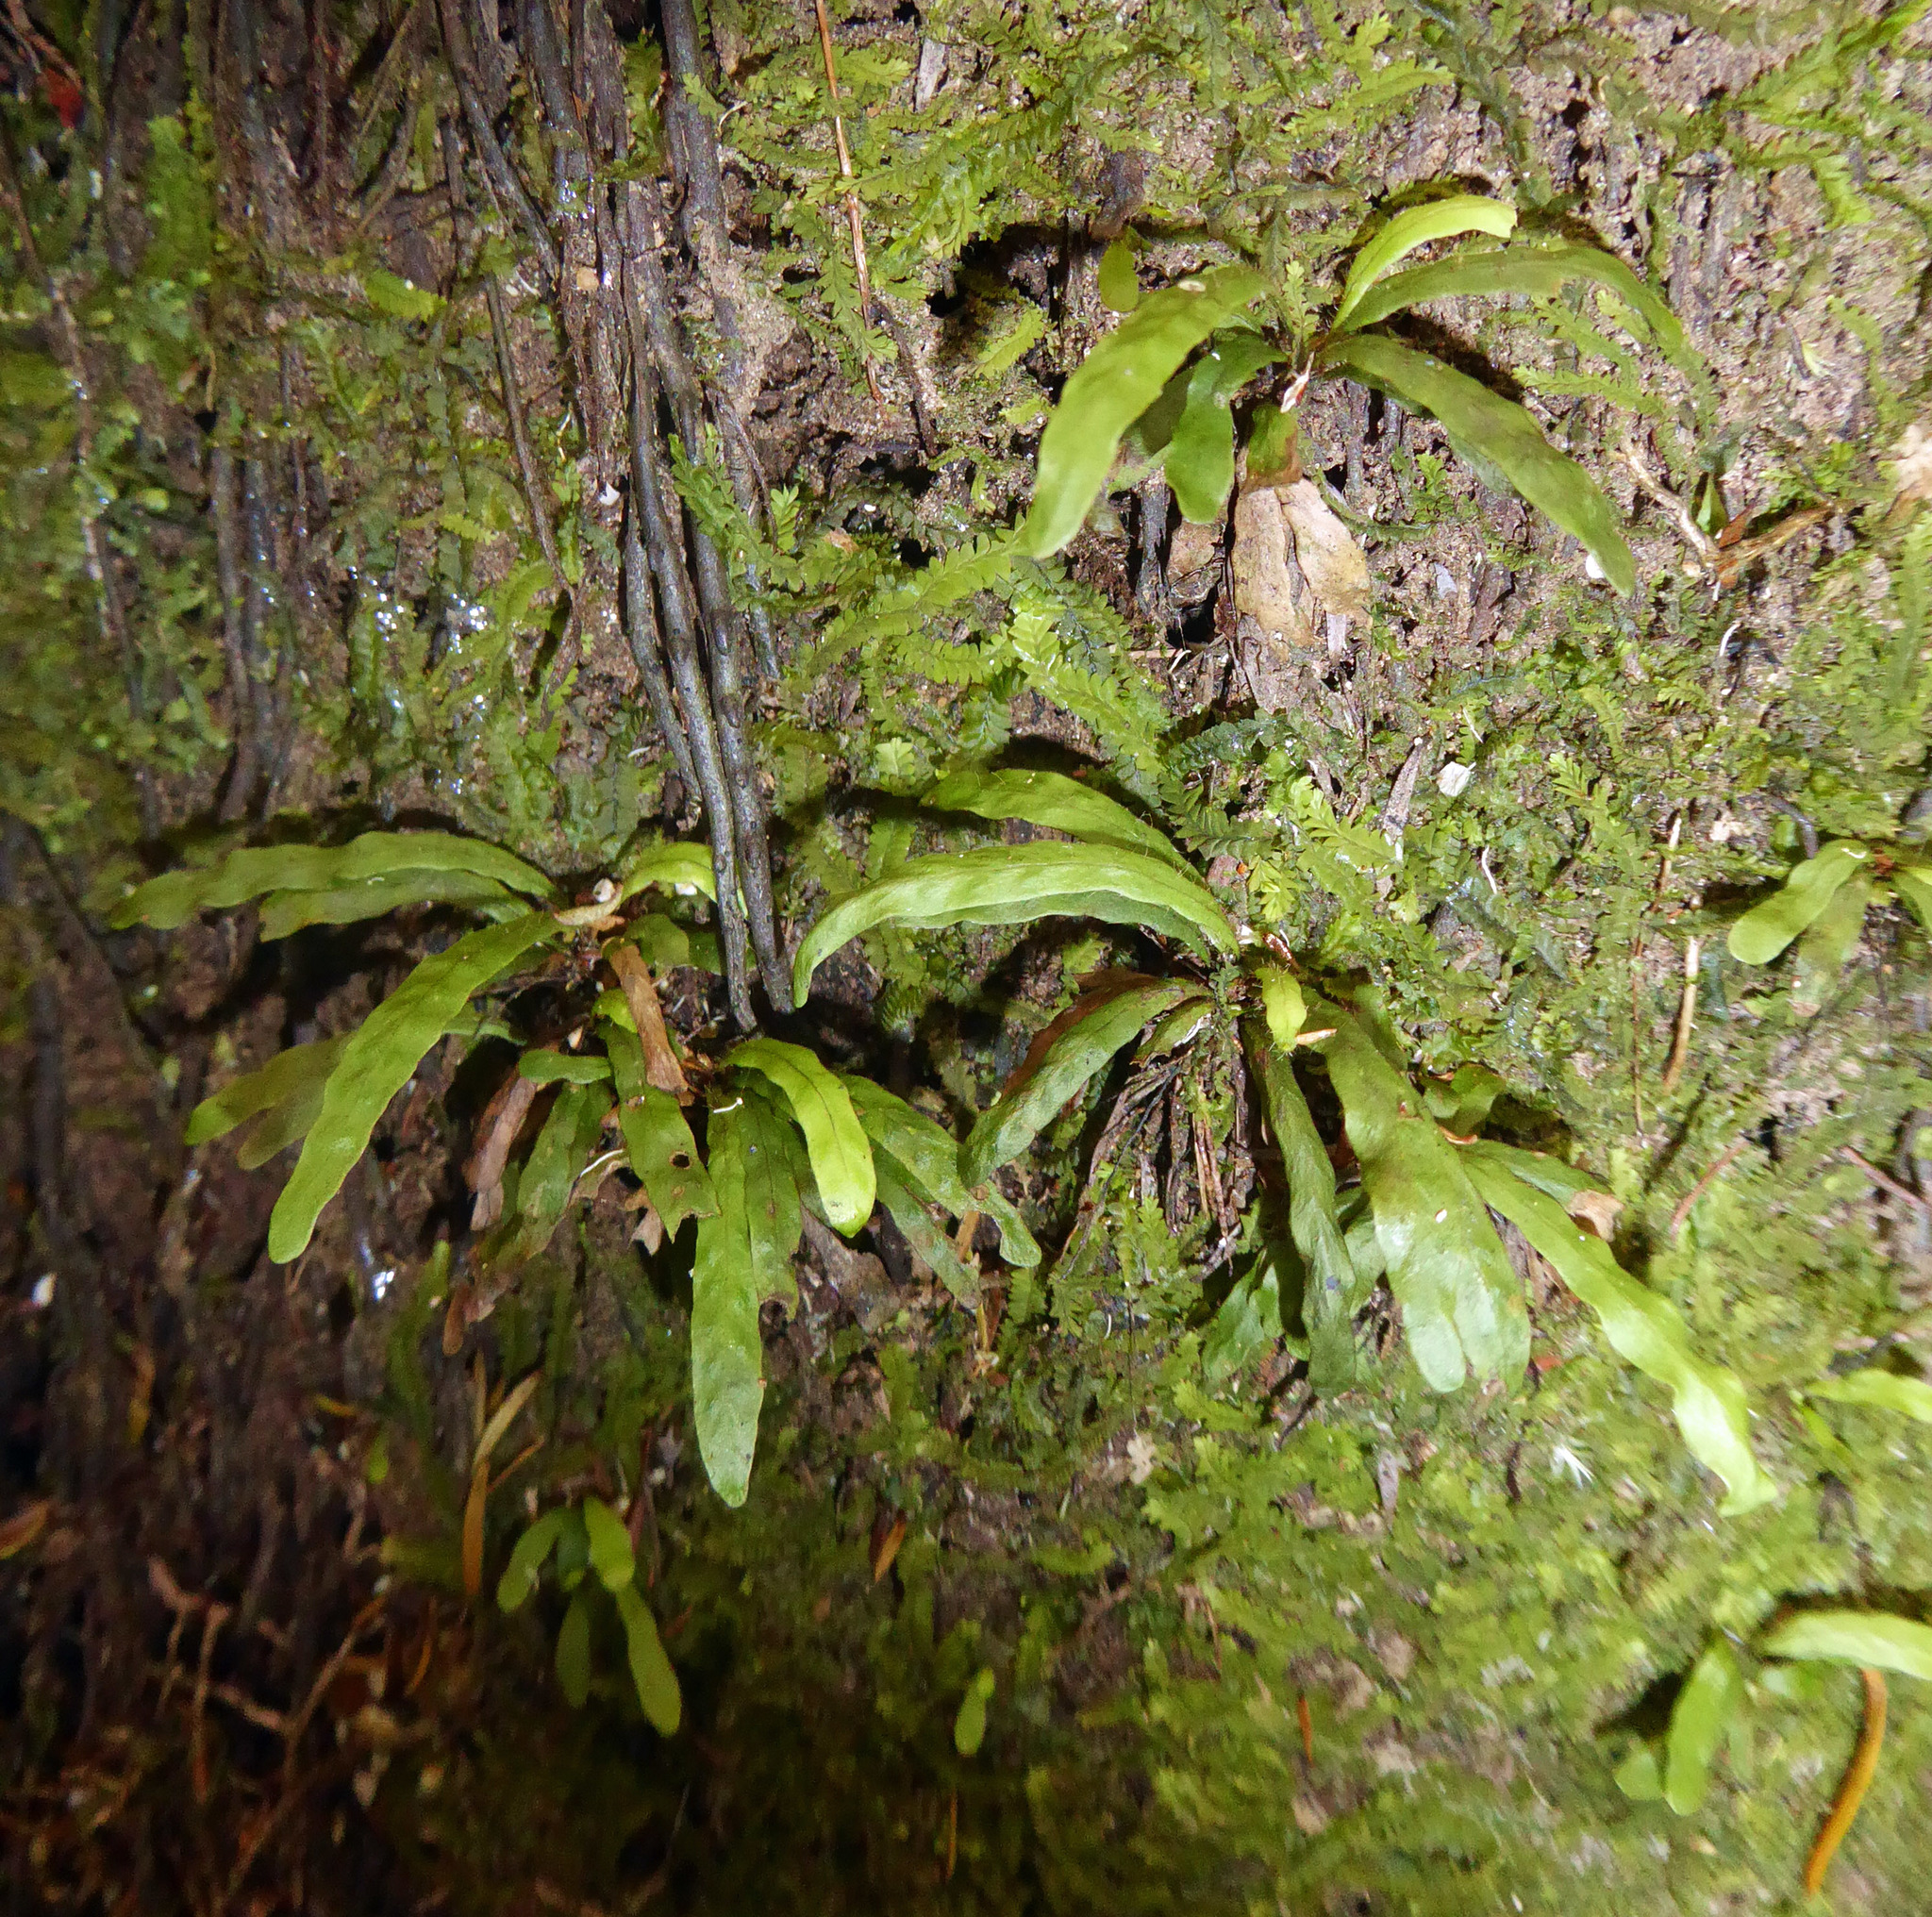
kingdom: Plantae
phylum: Tracheophyta
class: Polypodiopsida
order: Polypodiales
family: Polypodiaceae
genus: Notogrammitis
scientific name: Notogrammitis ciliata
